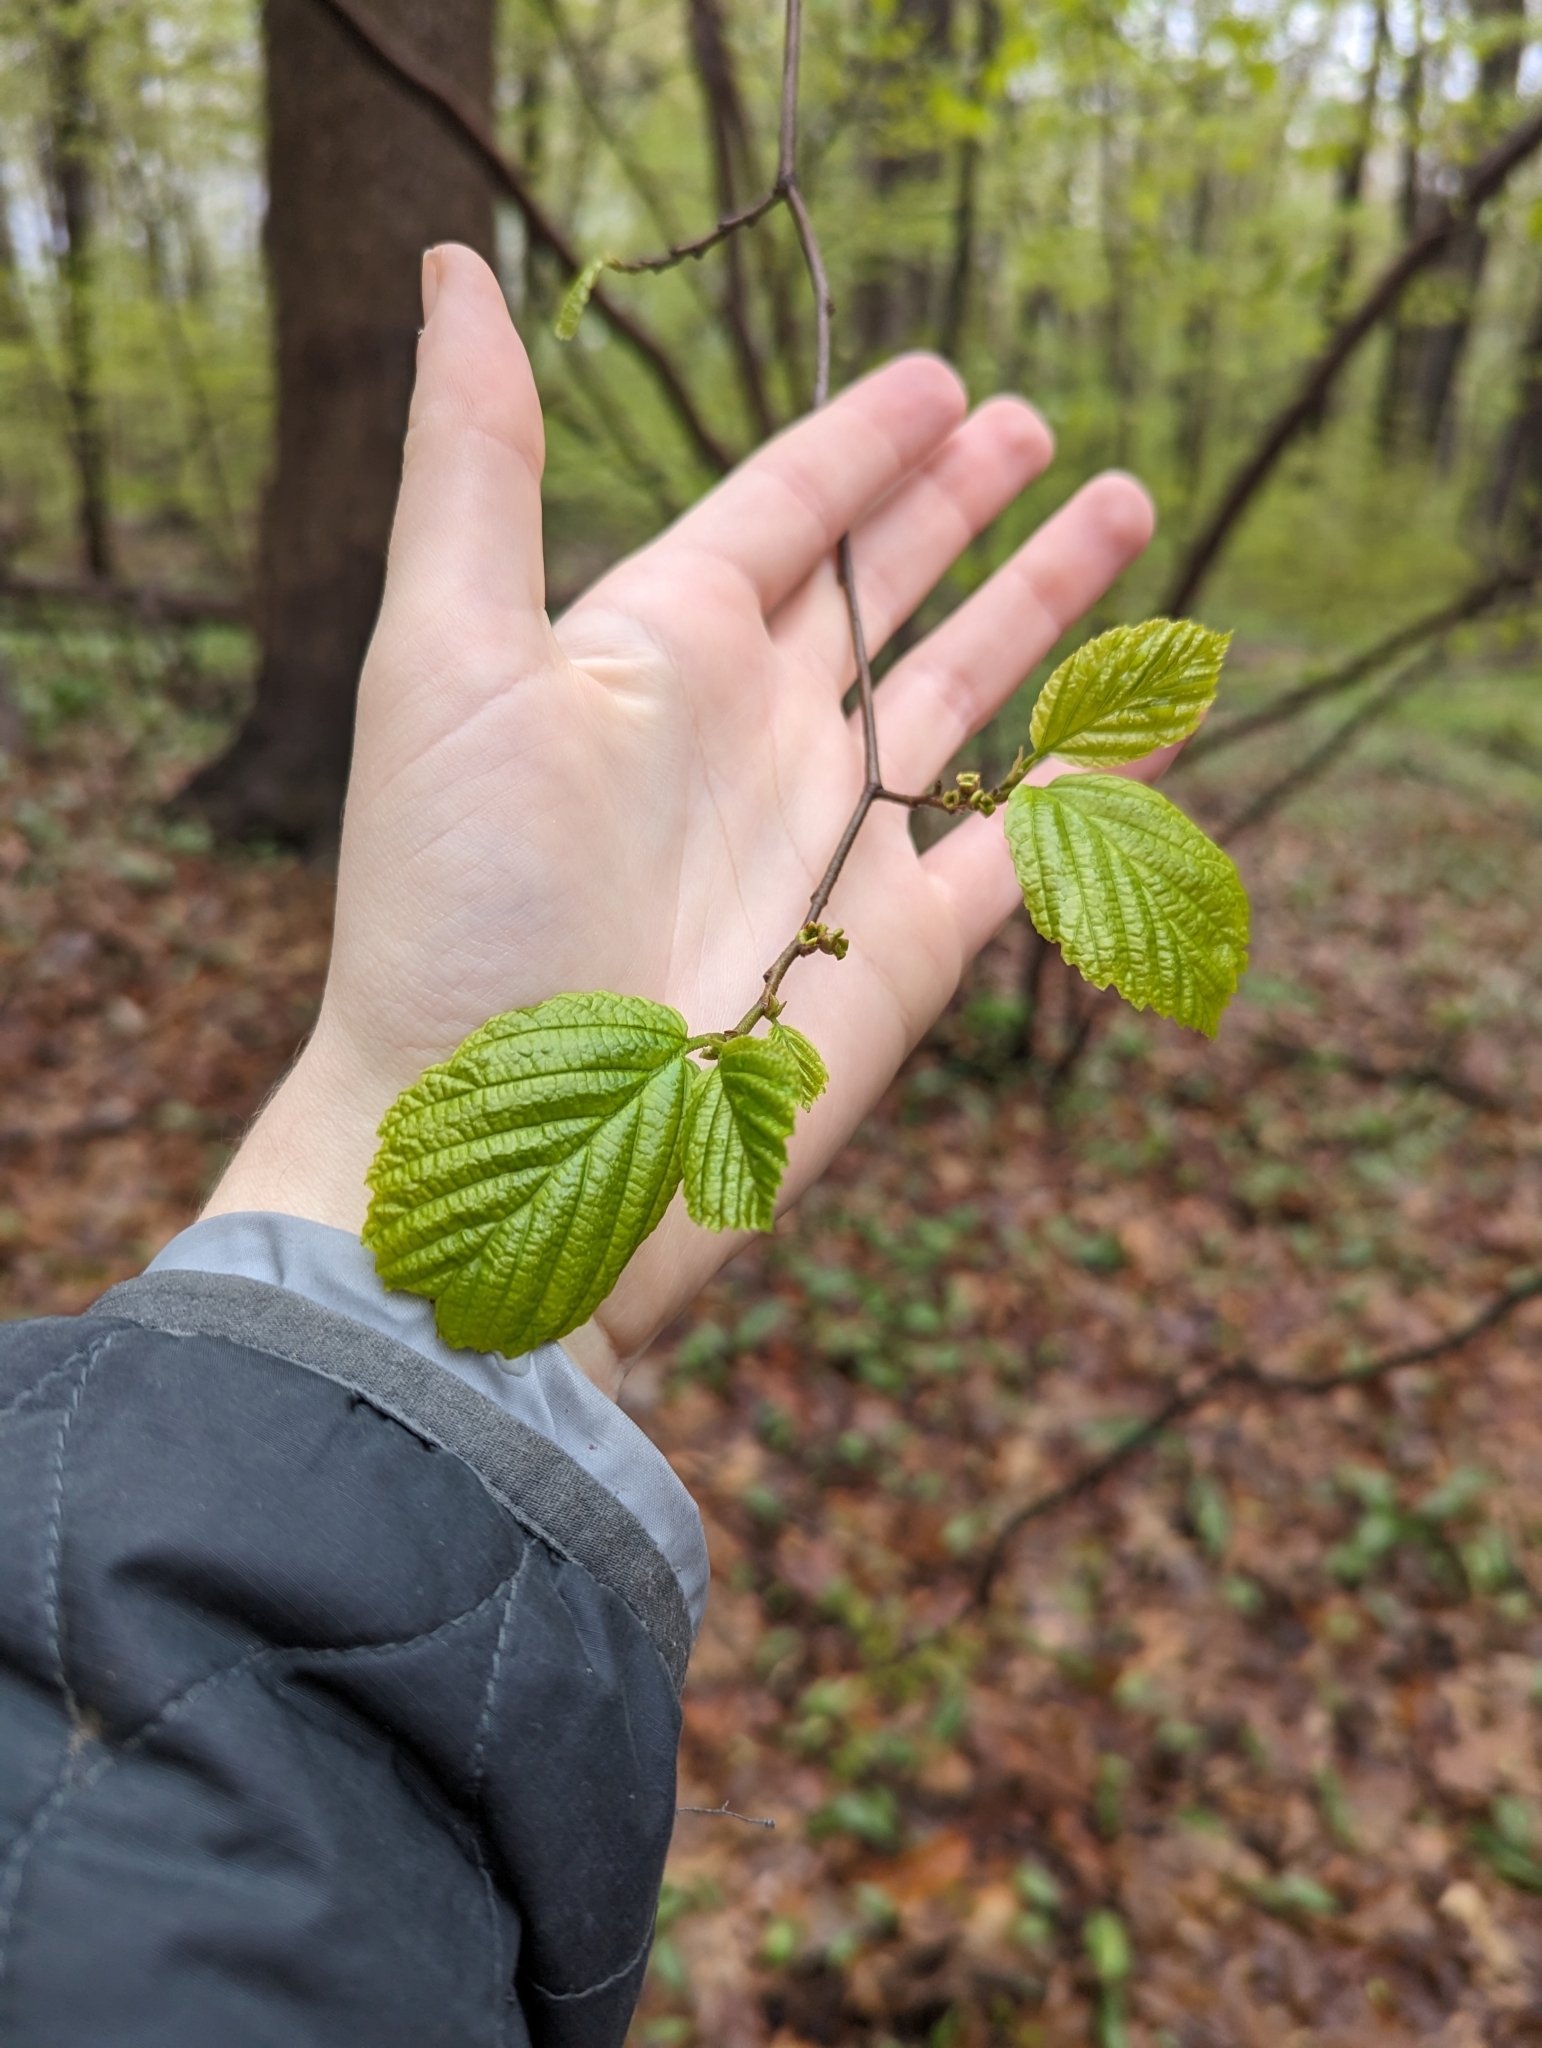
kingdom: Plantae
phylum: Tracheophyta
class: Magnoliopsida
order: Saxifragales
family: Hamamelidaceae
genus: Hamamelis
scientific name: Hamamelis virginiana
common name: Witch-hazel
